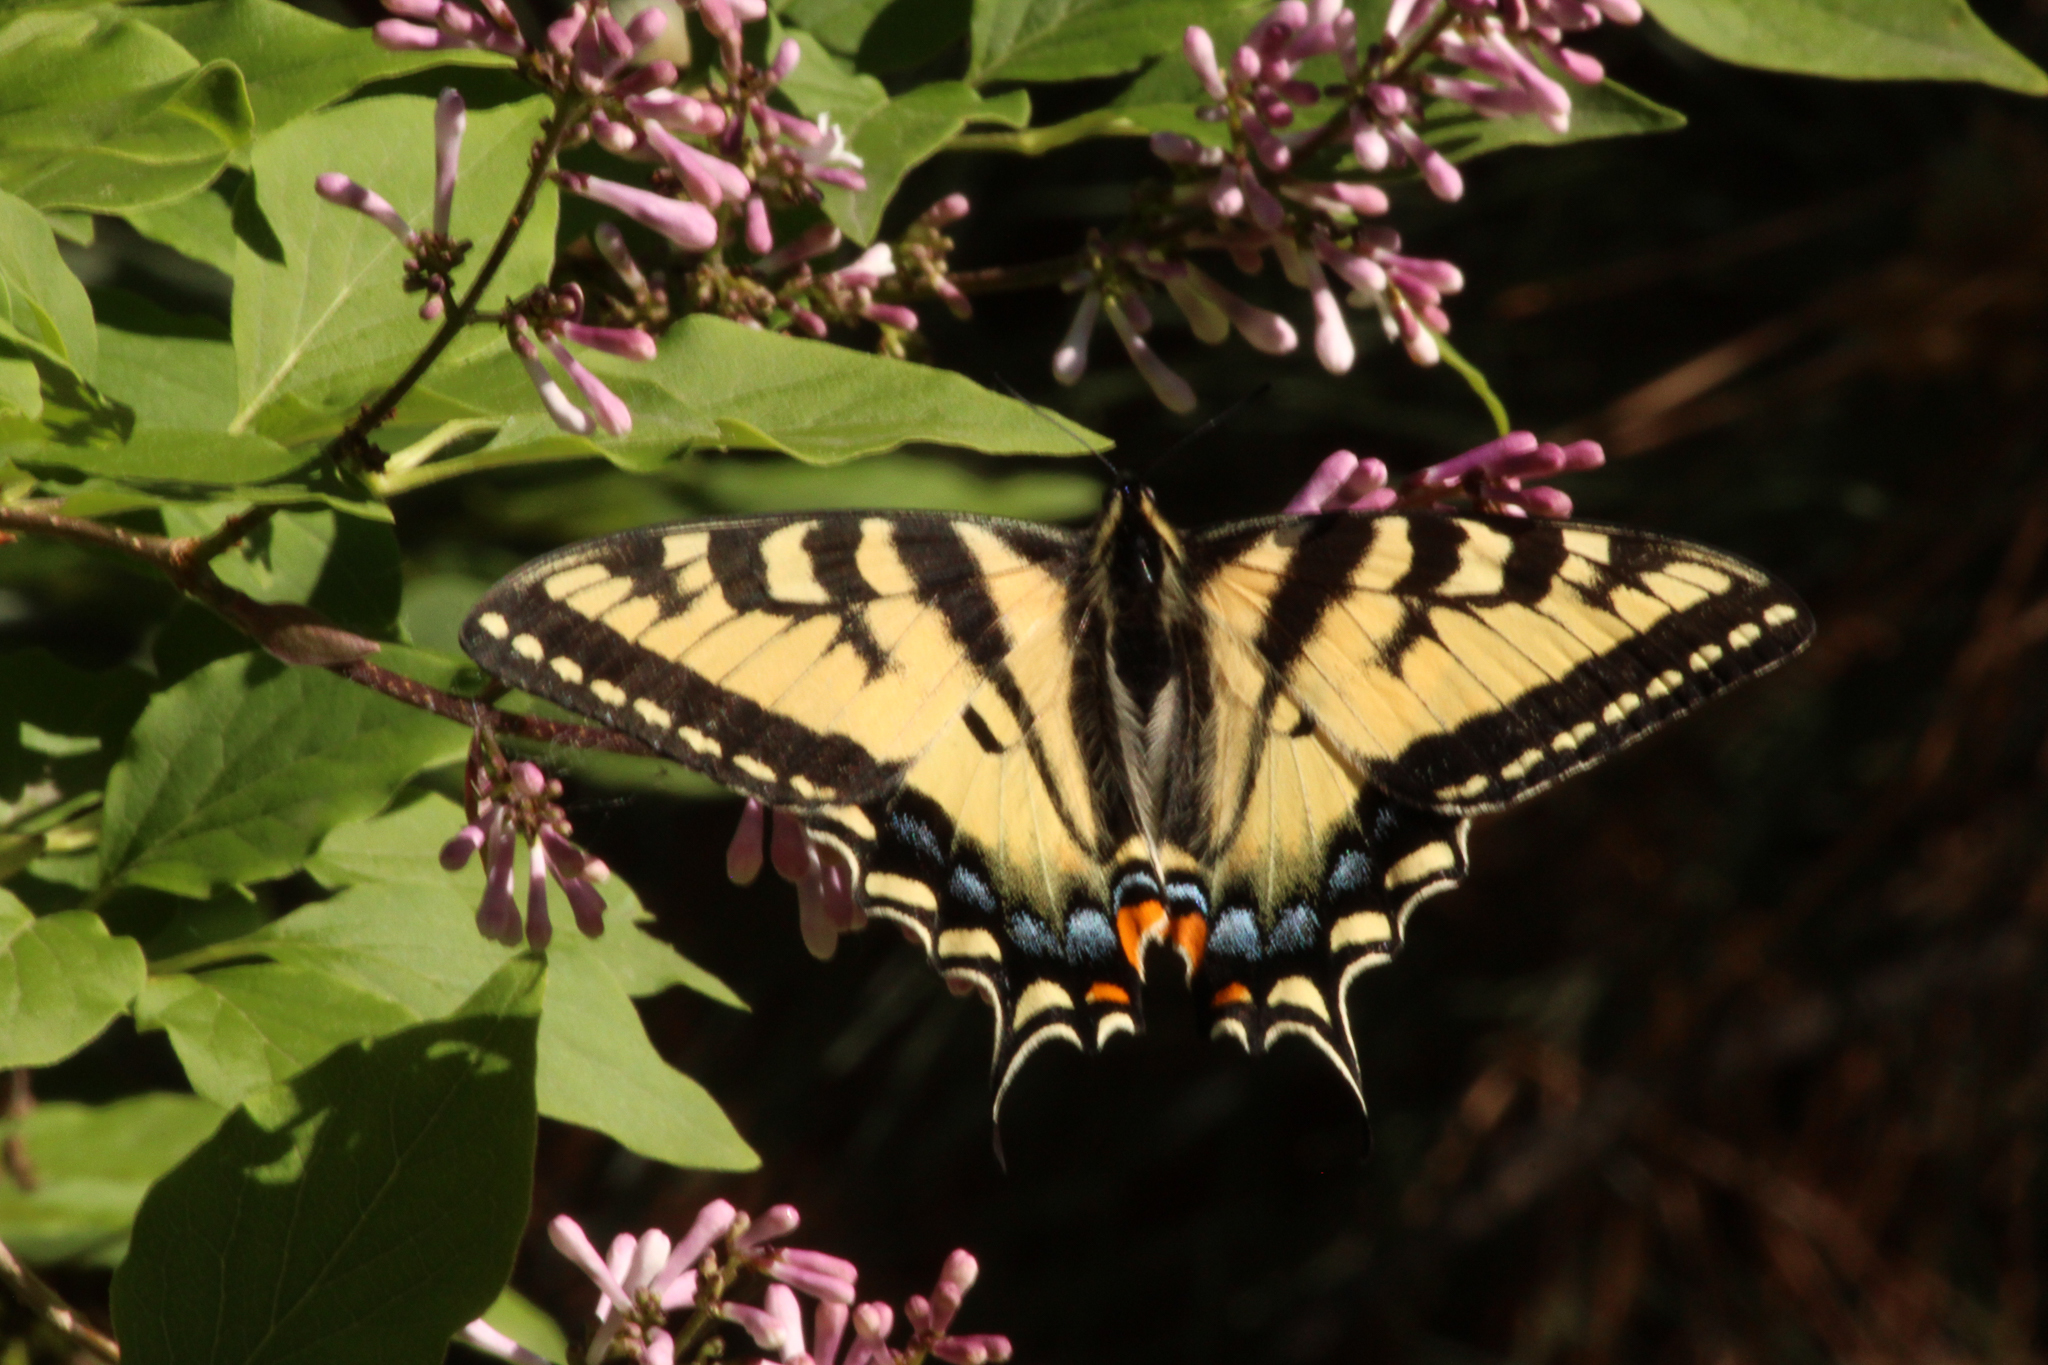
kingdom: Animalia
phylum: Arthropoda
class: Insecta
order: Lepidoptera
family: Papilionidae
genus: Papilio
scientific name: Papilio canadensis
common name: Canadian tiger swallowtail
